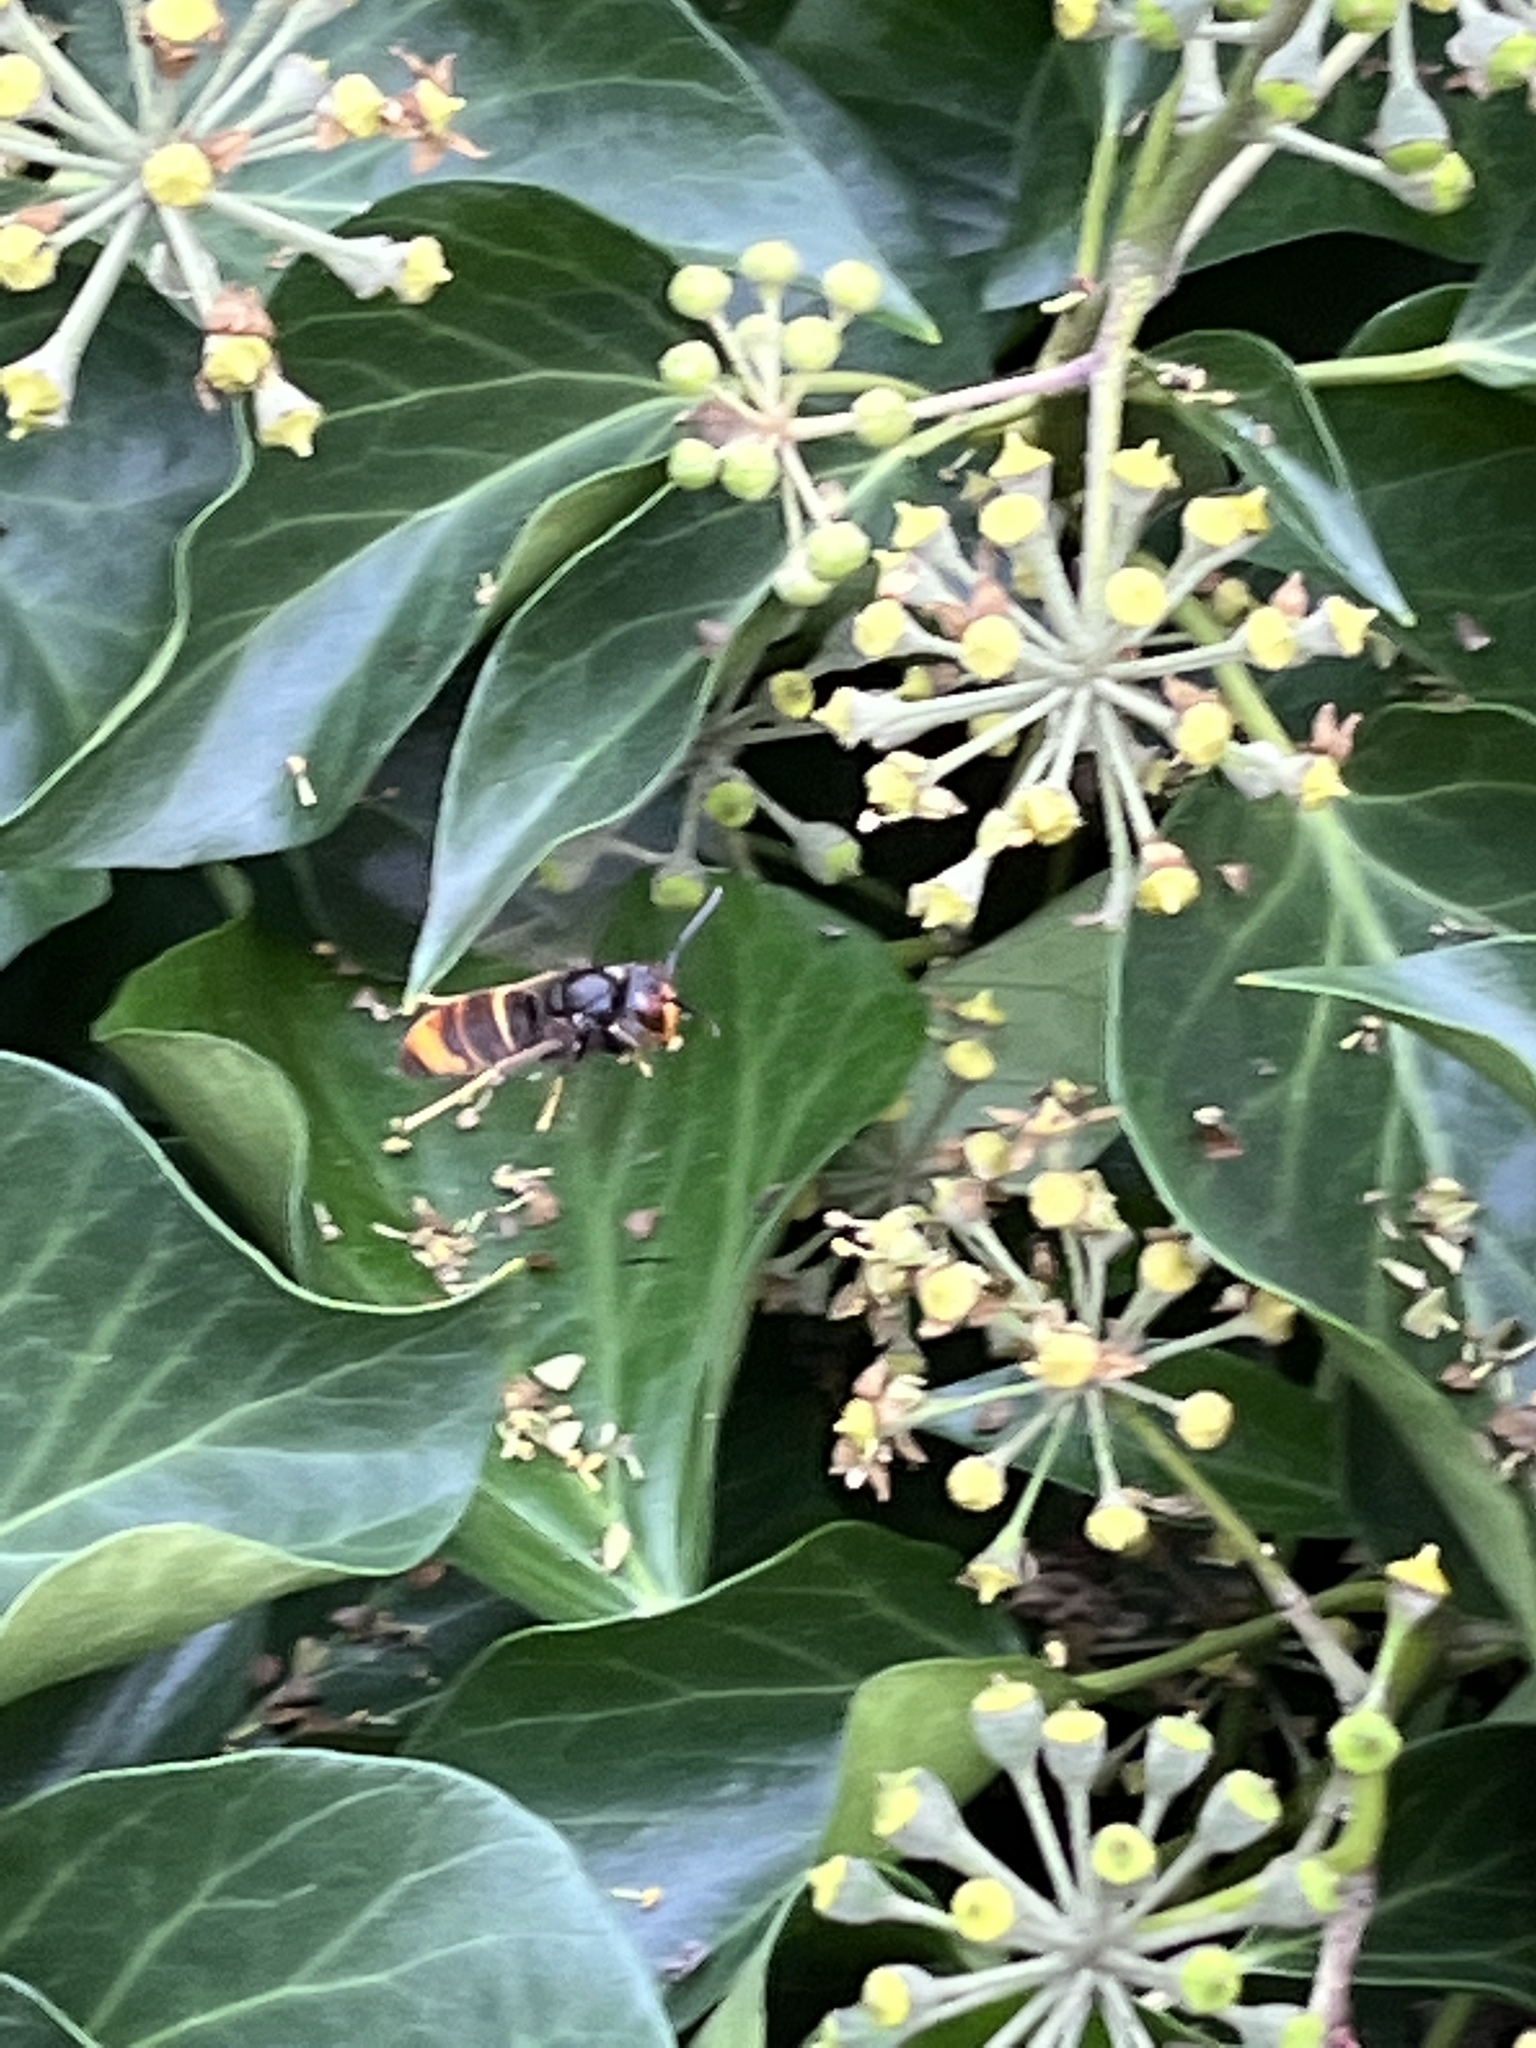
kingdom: Animalia
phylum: Arthropoda
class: Insecta
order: Hymenoptera
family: Vespidae
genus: Vespa
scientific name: Vespa velutina
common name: Asian hornet
